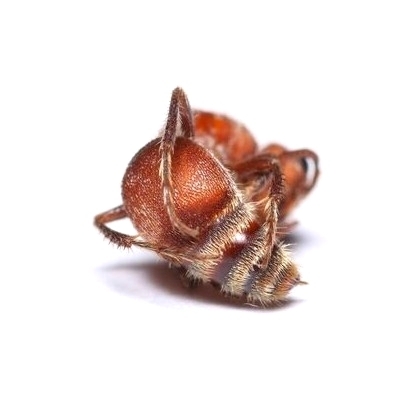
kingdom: Animalia
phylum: Arthropoda
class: Insecta
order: Hymenoptera
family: Mutillidae
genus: Pseudomethoca
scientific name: Pseudomethoca
